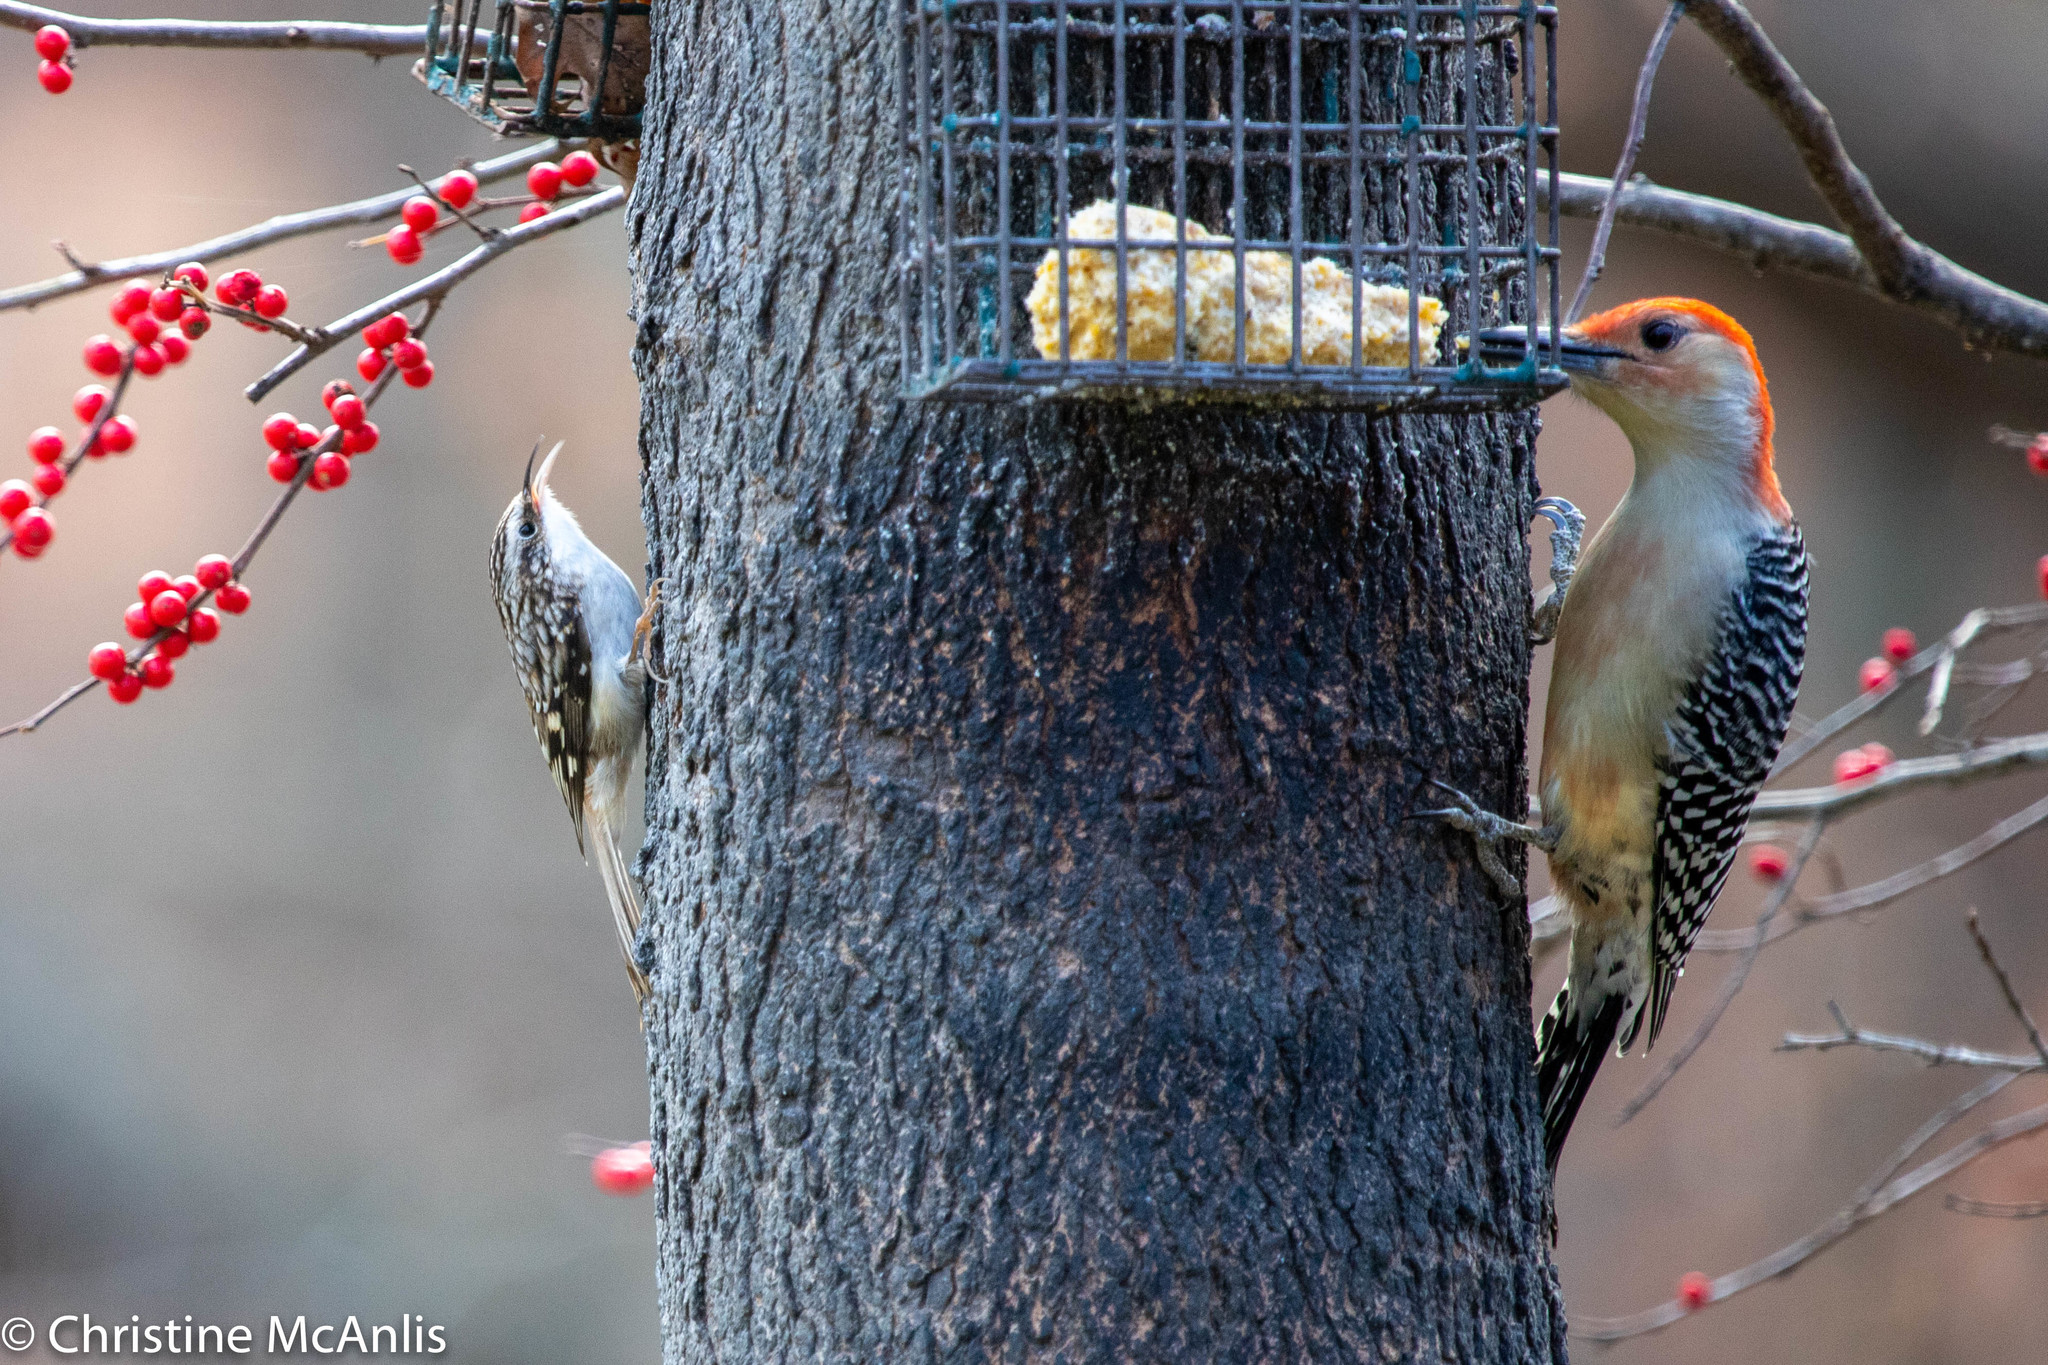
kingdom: Animalia
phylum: Chordata
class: Aves
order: Passeriformes
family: Certhiidae
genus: Certhia
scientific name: Certhia americana
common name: Brown creeper
